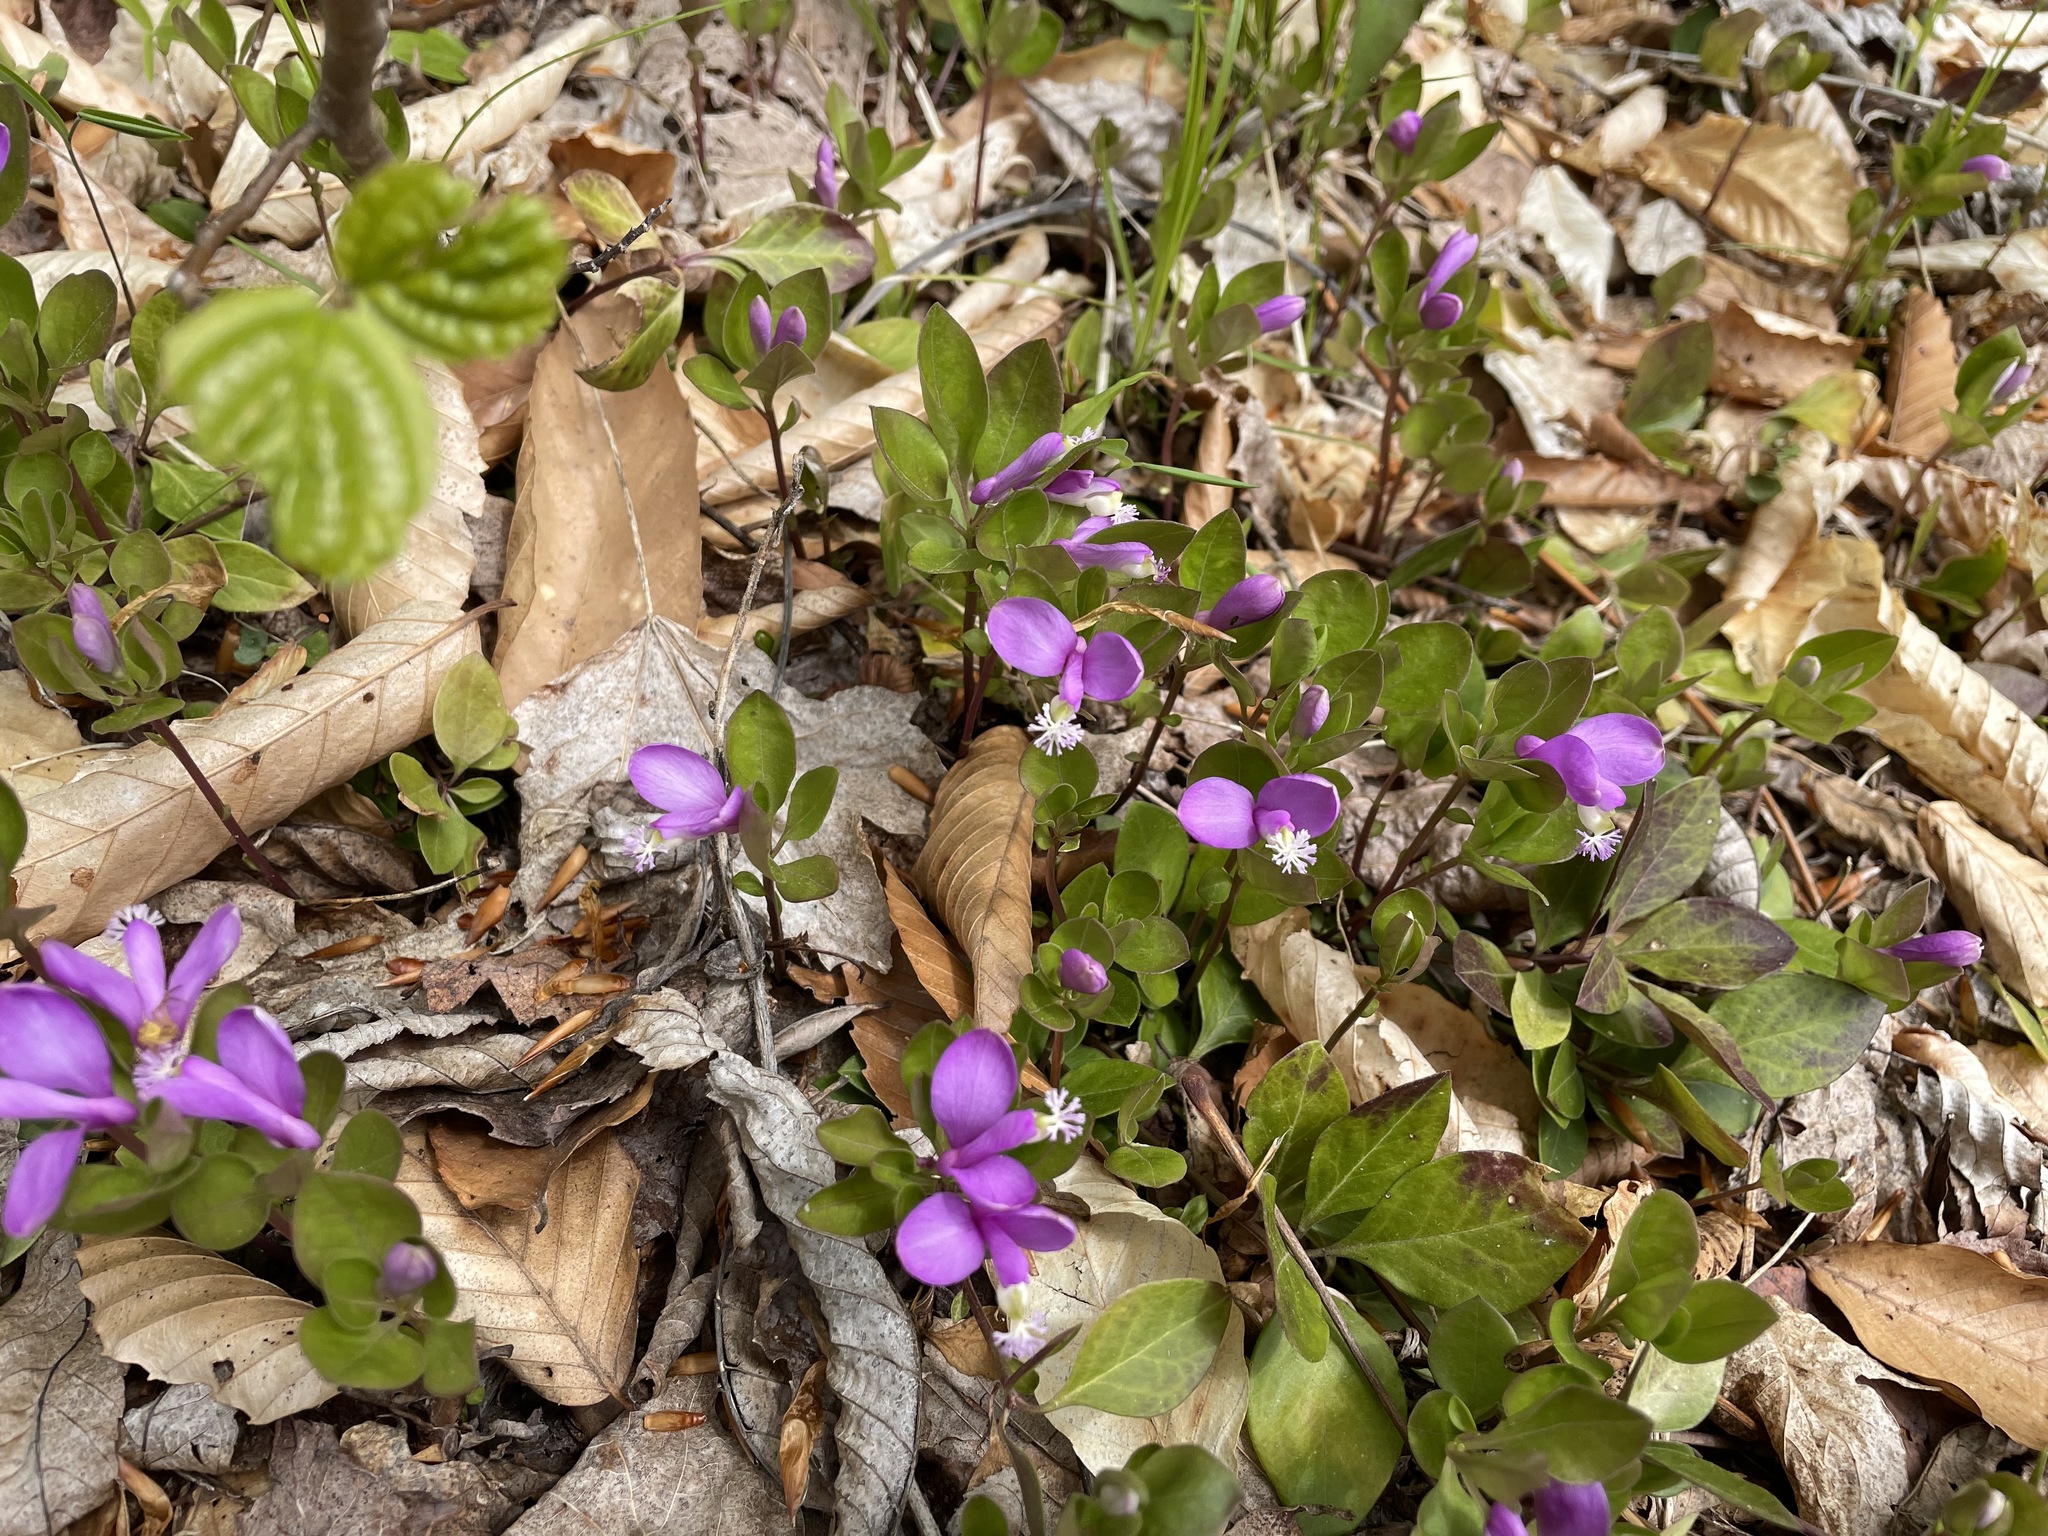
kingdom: Plantae
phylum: Tracheophyta
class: Magnoliopsida
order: Fabales
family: Polygalaceae
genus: Polygaloides
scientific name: Polygaloides paucifolia
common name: Bird-on-the-wing
